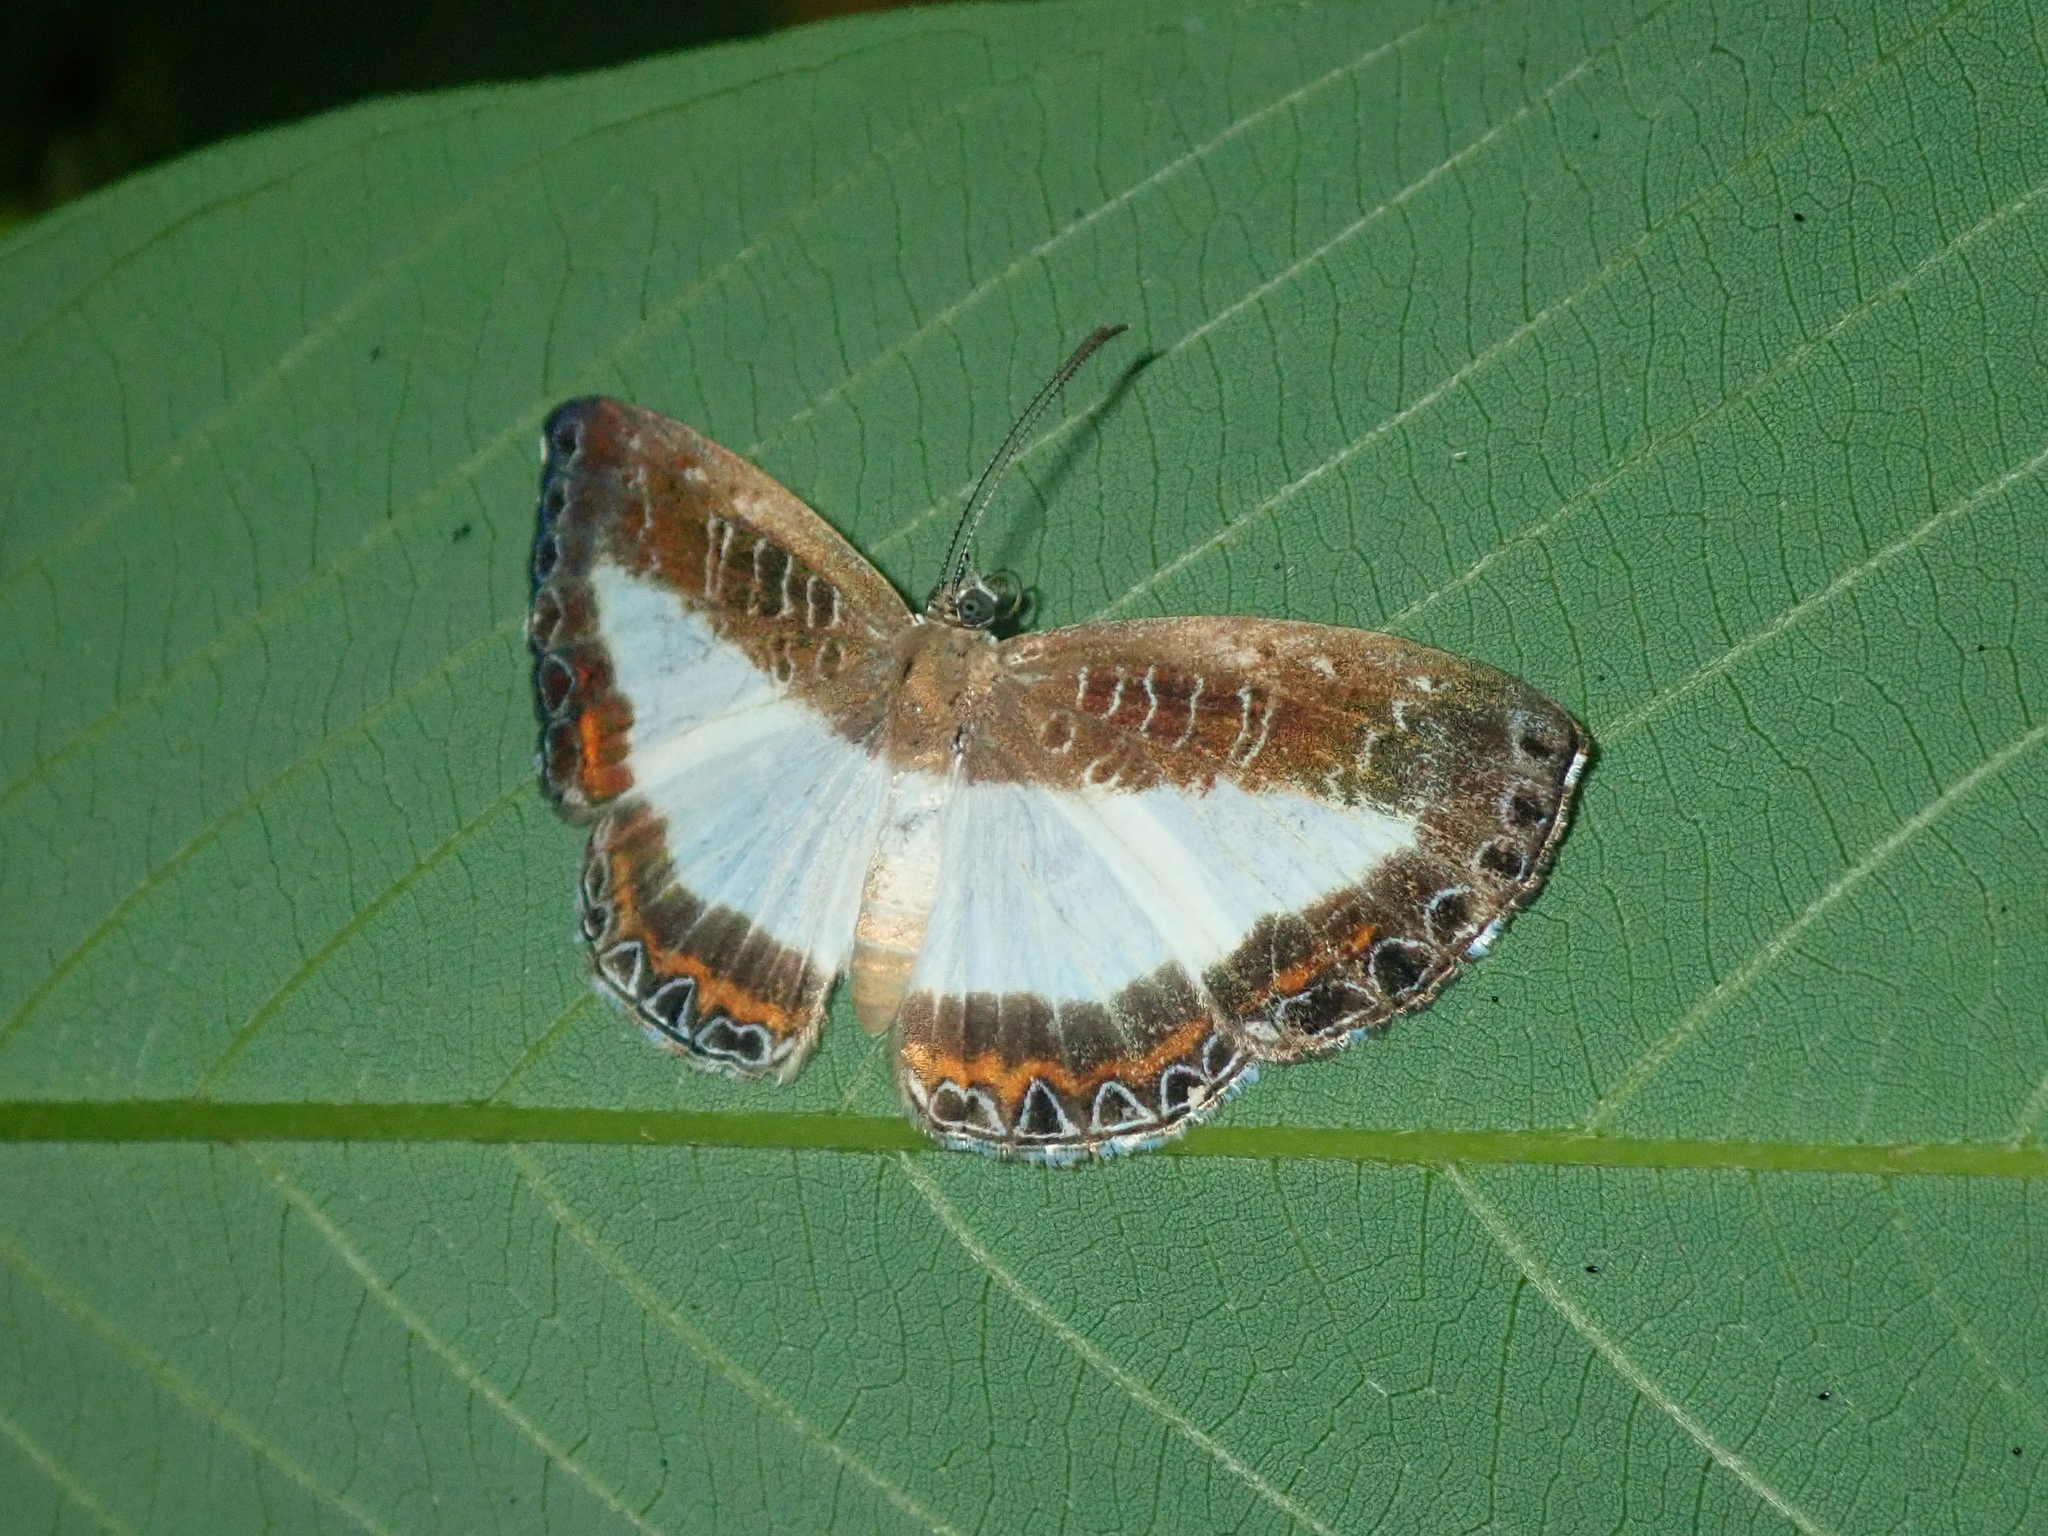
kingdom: Animalia
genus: Nymphidium
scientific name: Nymphidium azanoides
